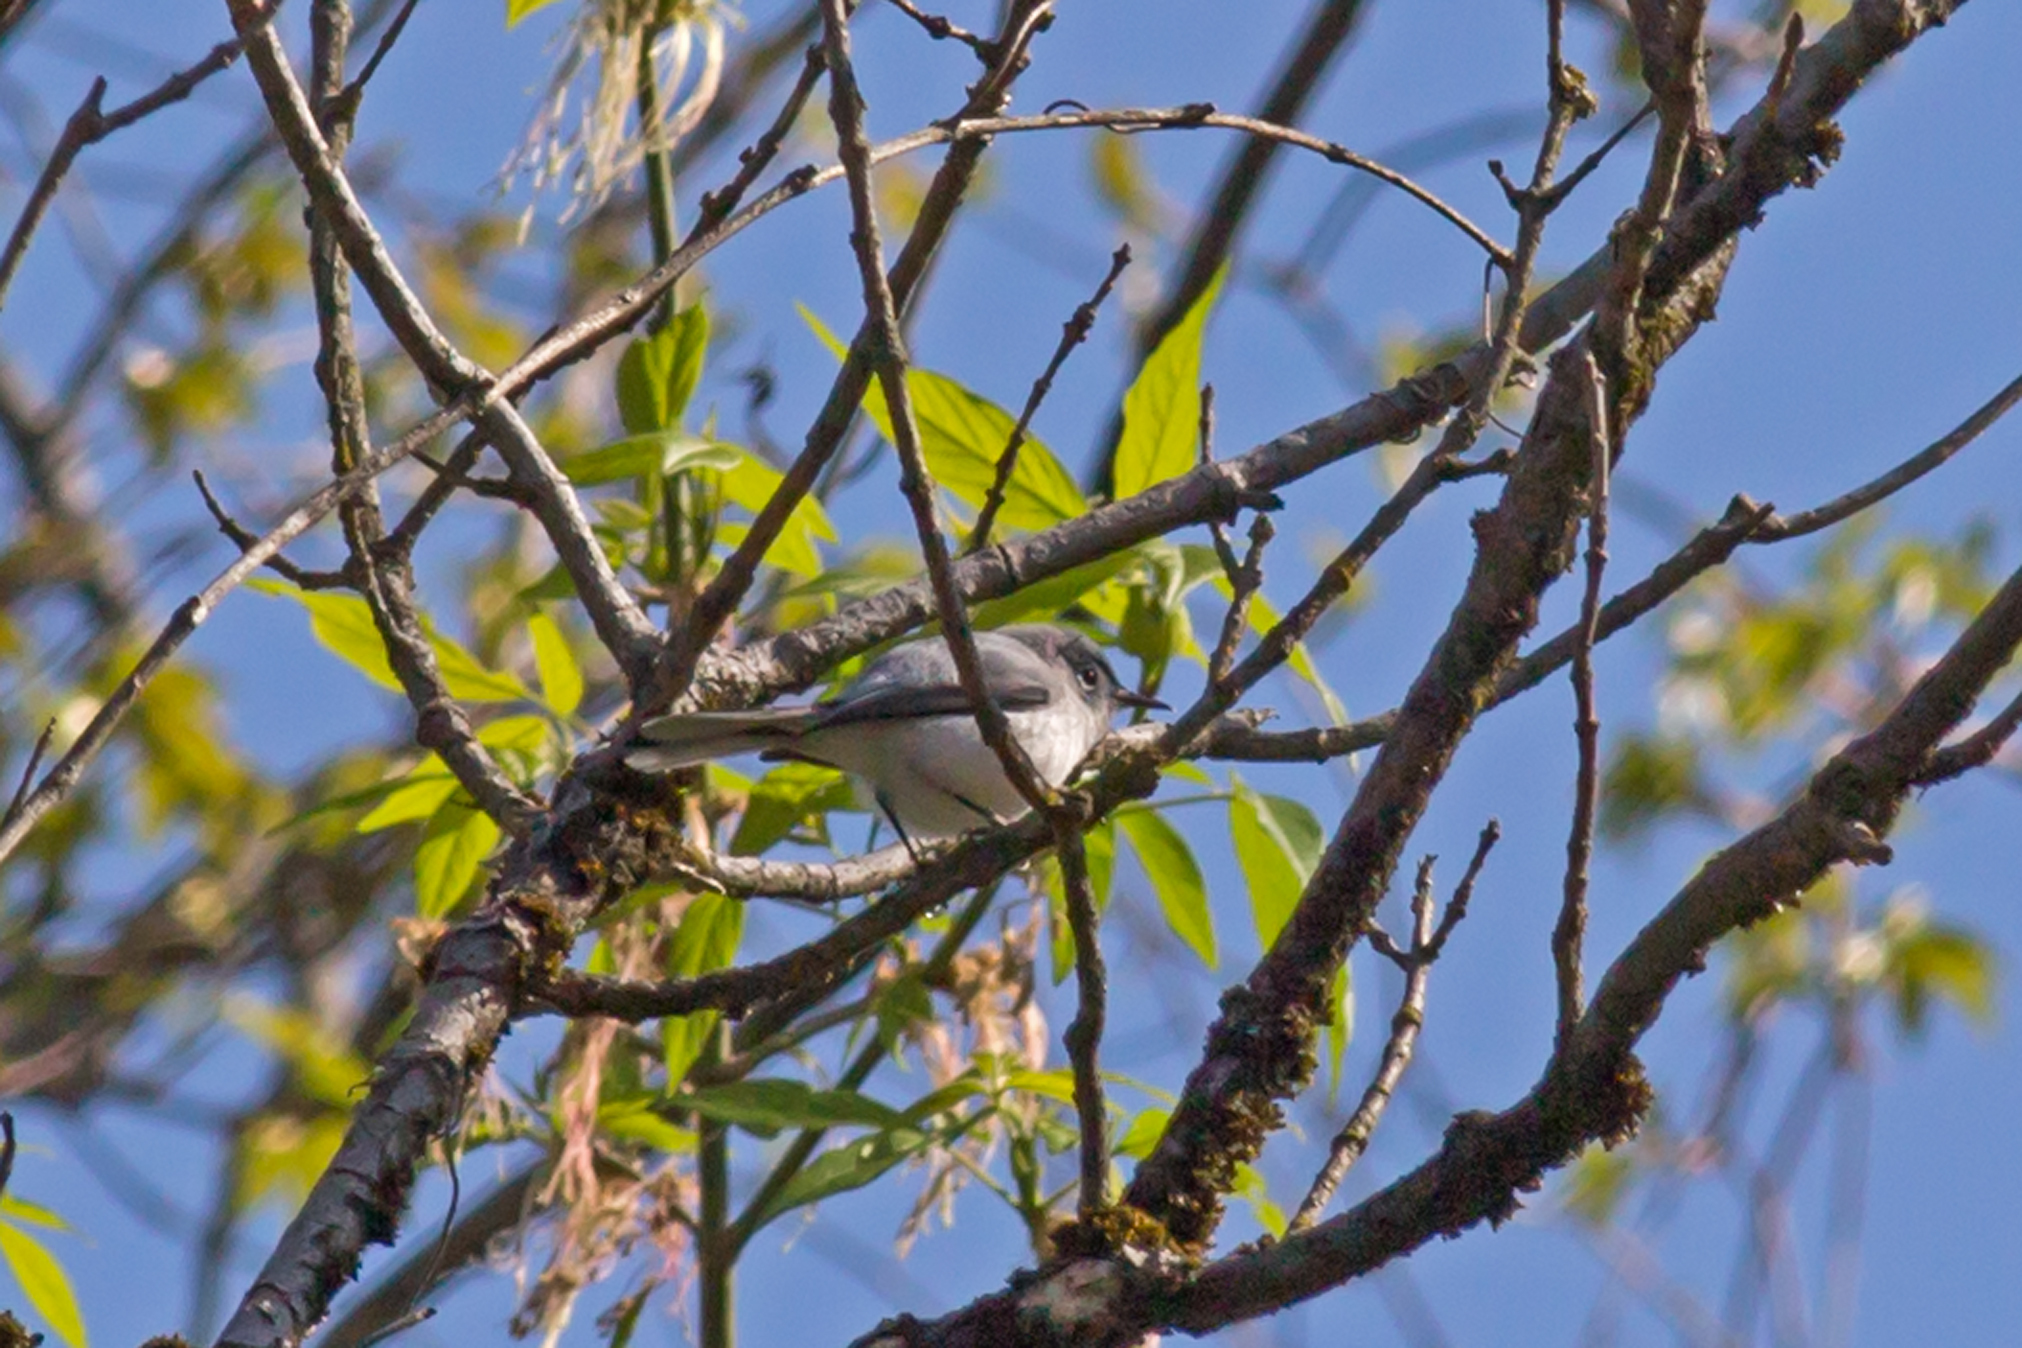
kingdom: Animalia
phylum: Chordata
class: Aves
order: Passeriformes
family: Polioptilidae
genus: Polioptila
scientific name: Polioptila caerulea
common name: Blue-gray gnatcatcher
